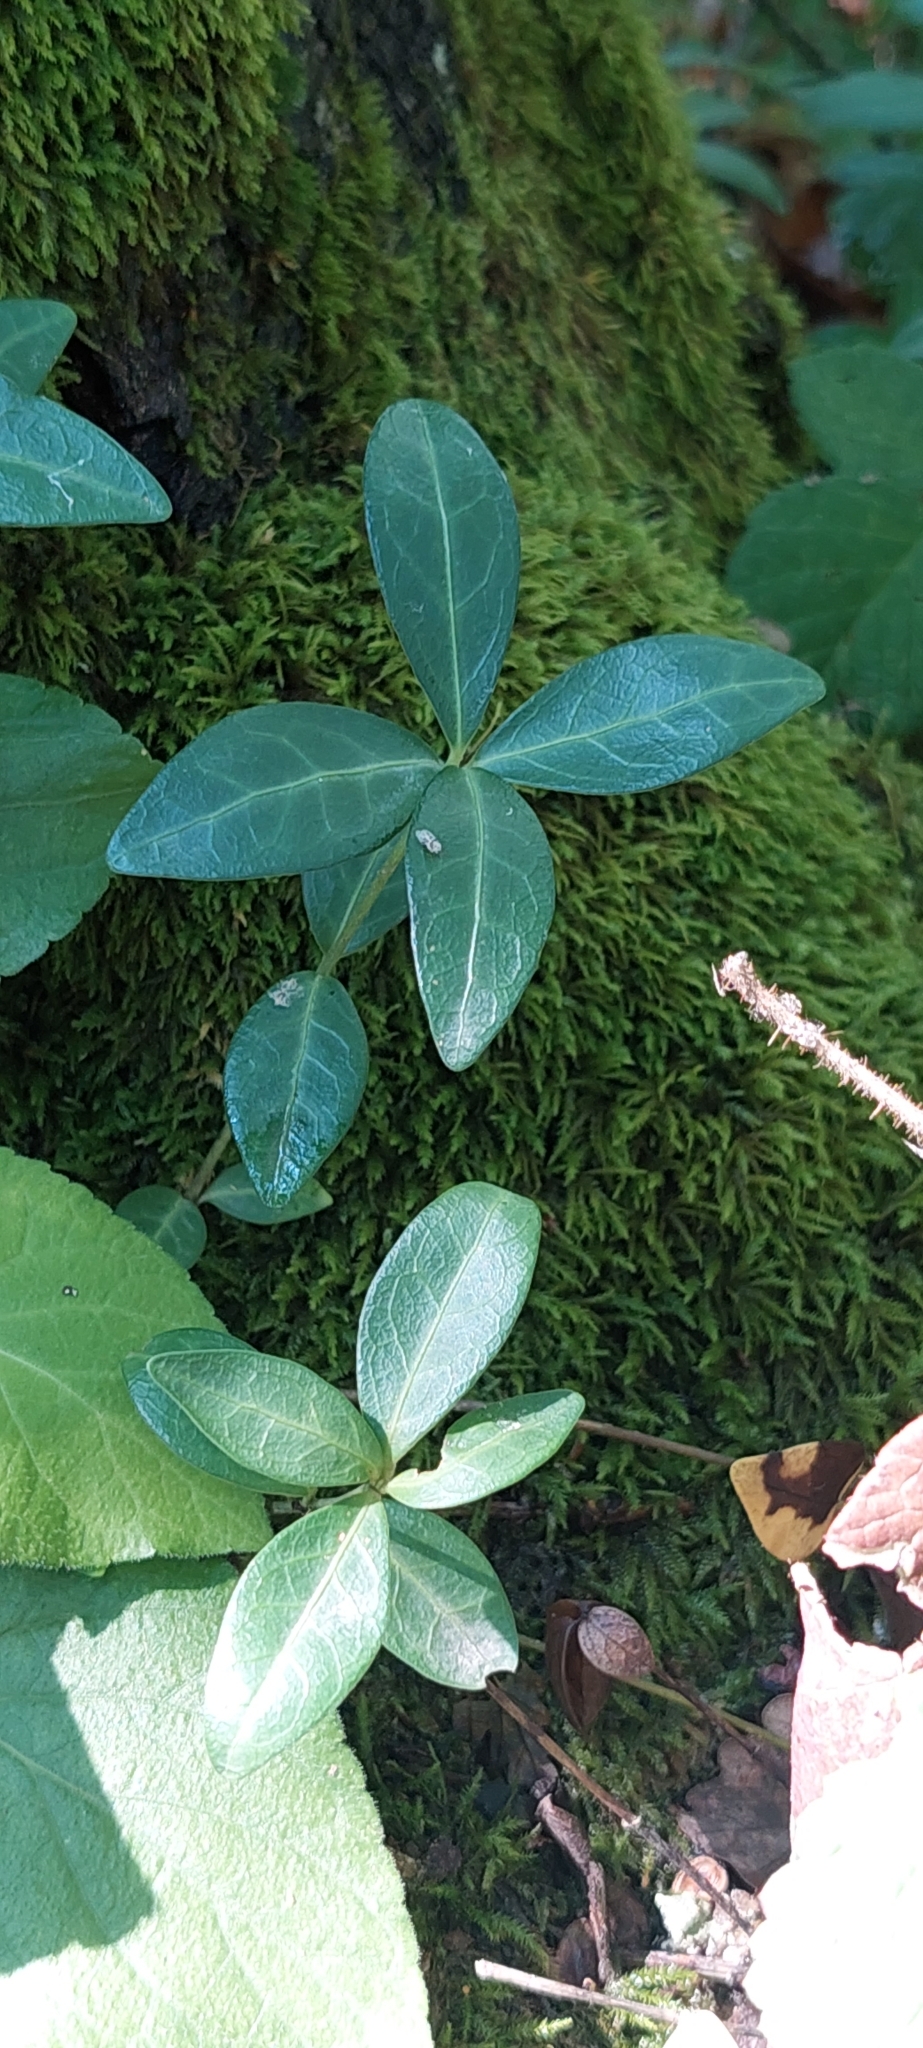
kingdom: Plantae
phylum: Tracheophyta
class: Magnoliopsida
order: Gentianales
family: Apocynaceae
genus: Vinca
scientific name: Vinca minor
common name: Lesser periwinkle
